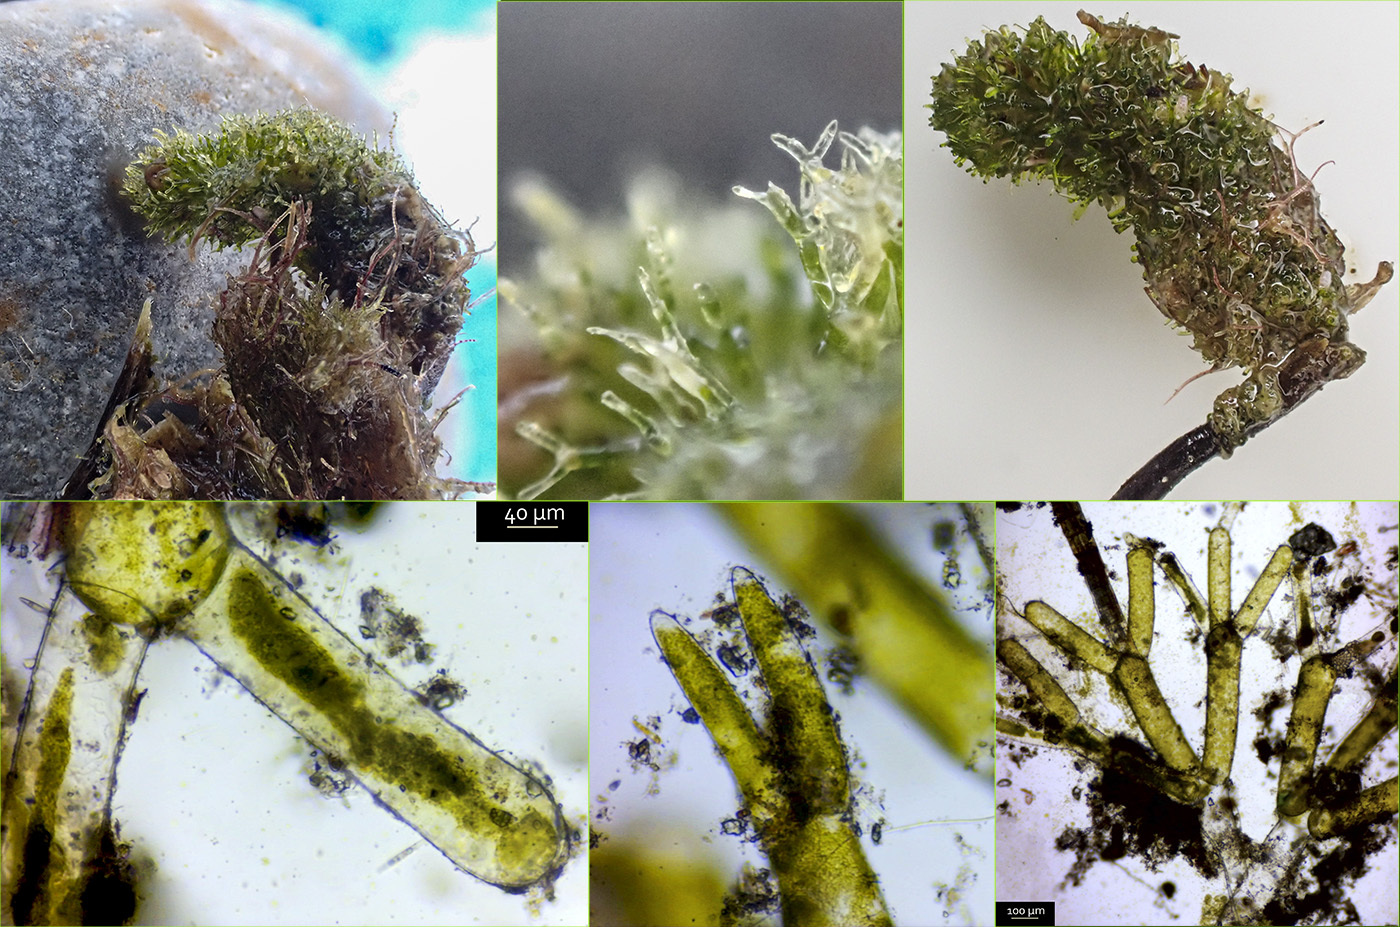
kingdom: Plantae
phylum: Chlorophyta
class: Ulvophyceae
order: Dasycladales
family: Dasycladaceae
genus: Dasycladus
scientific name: Dasycladus vermicularis
